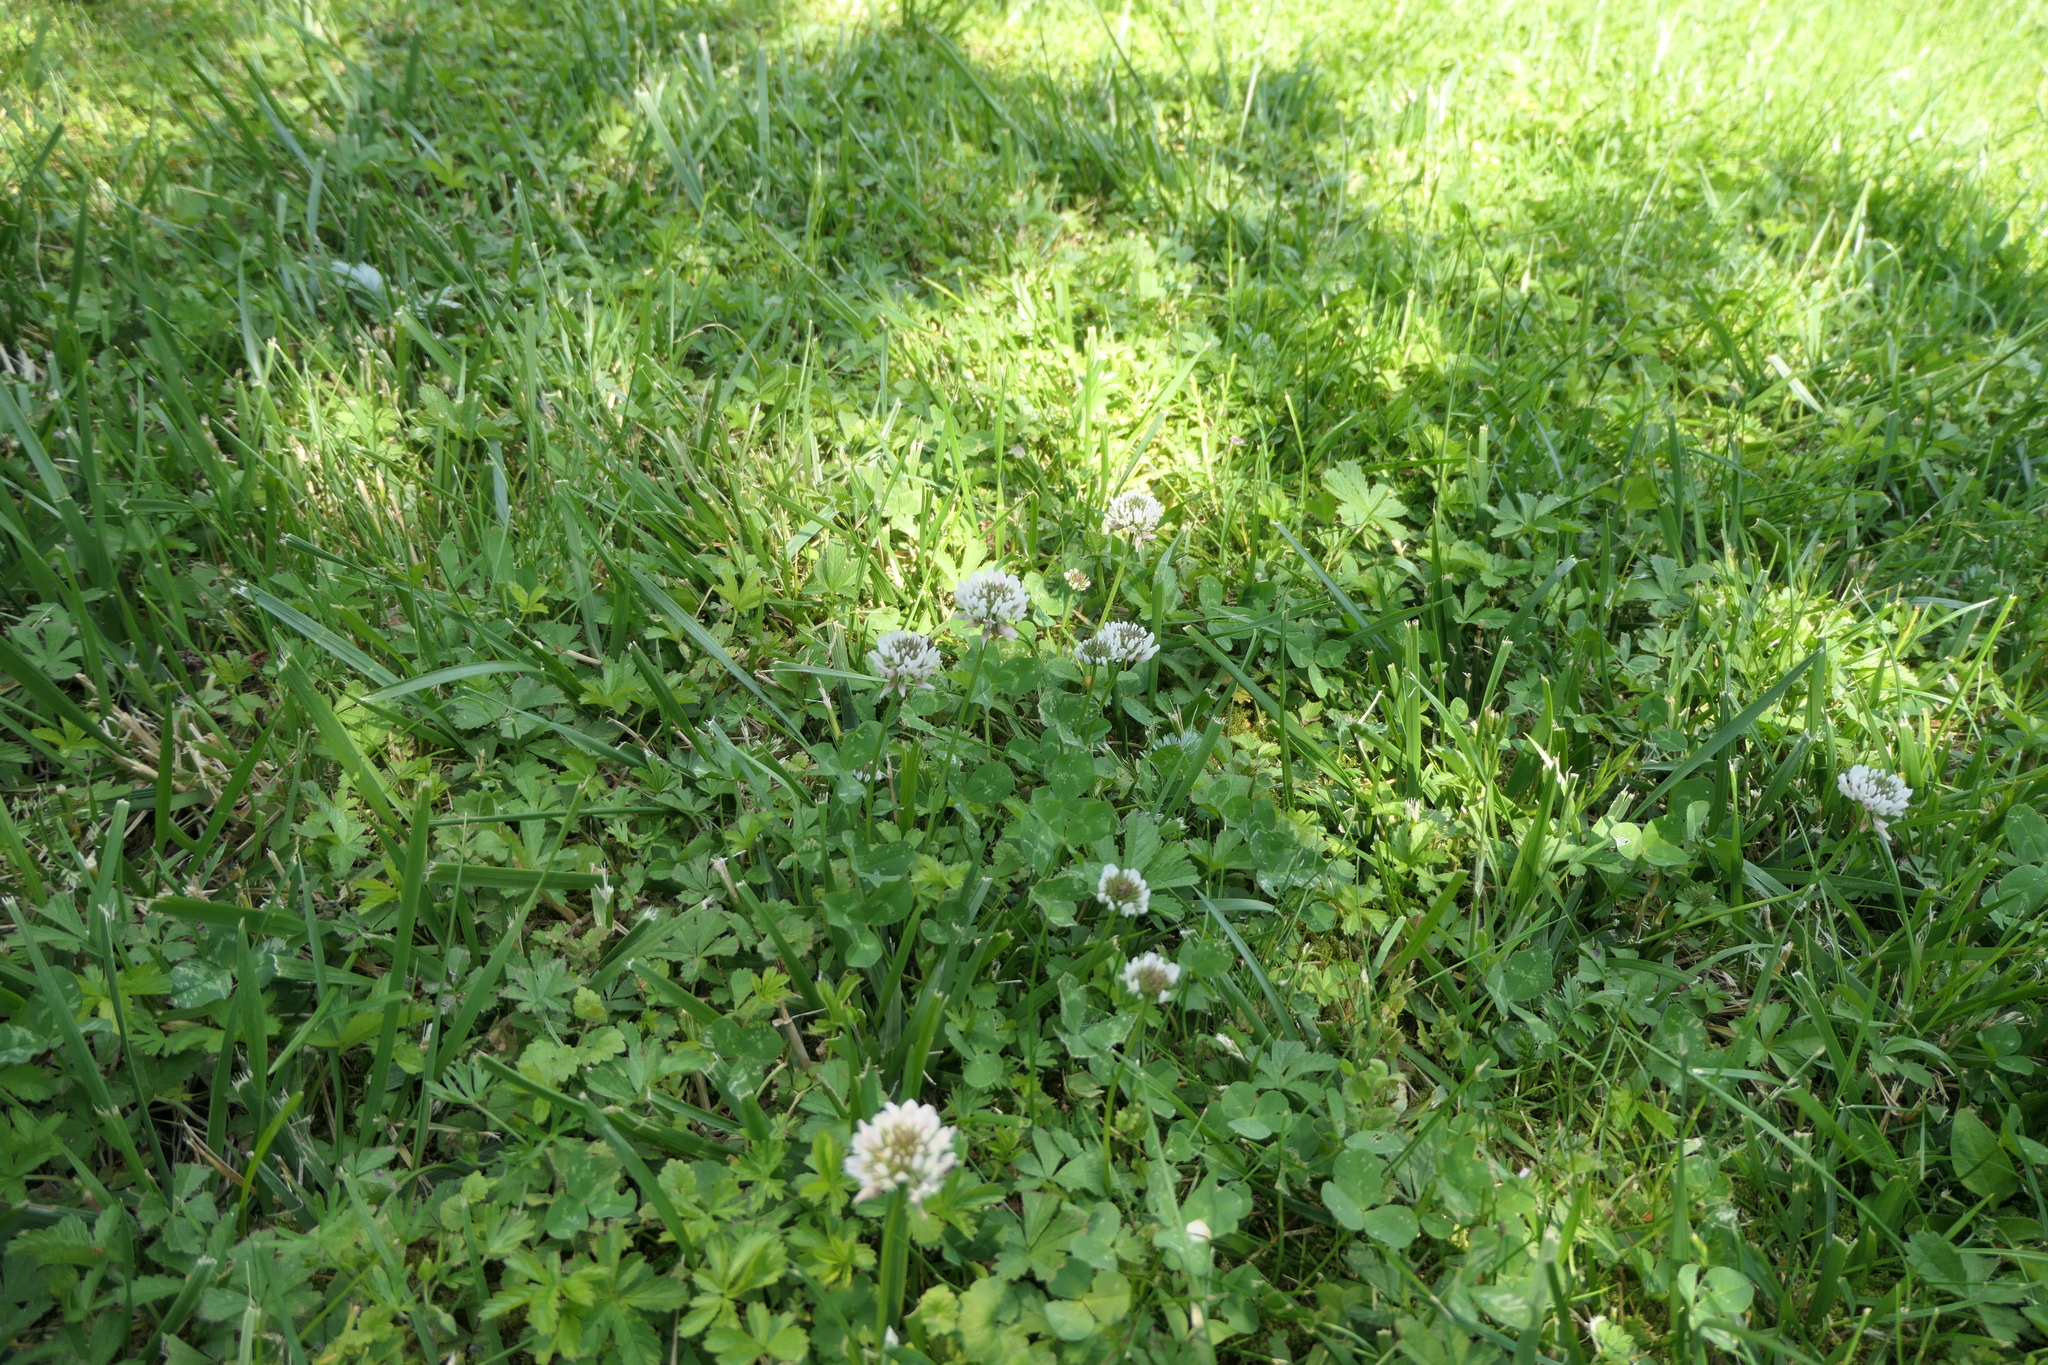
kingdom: Plantae
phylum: Tracheophyta
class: Magnoliopsida
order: Fabales
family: Fabaceae
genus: Trifolium
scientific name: Trifolium repens
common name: White clover
